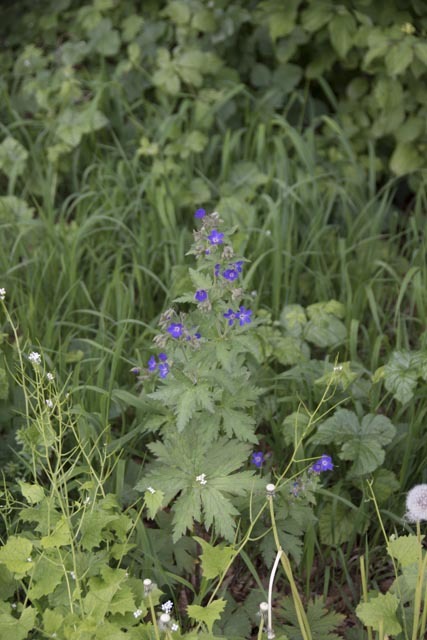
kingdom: Plantae
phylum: Tracheophyta
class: Magnoliopsida
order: Geraniales
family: Geraniaceae
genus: Geranium
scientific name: Geranium sylvaticum
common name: Wood crane's-bill
